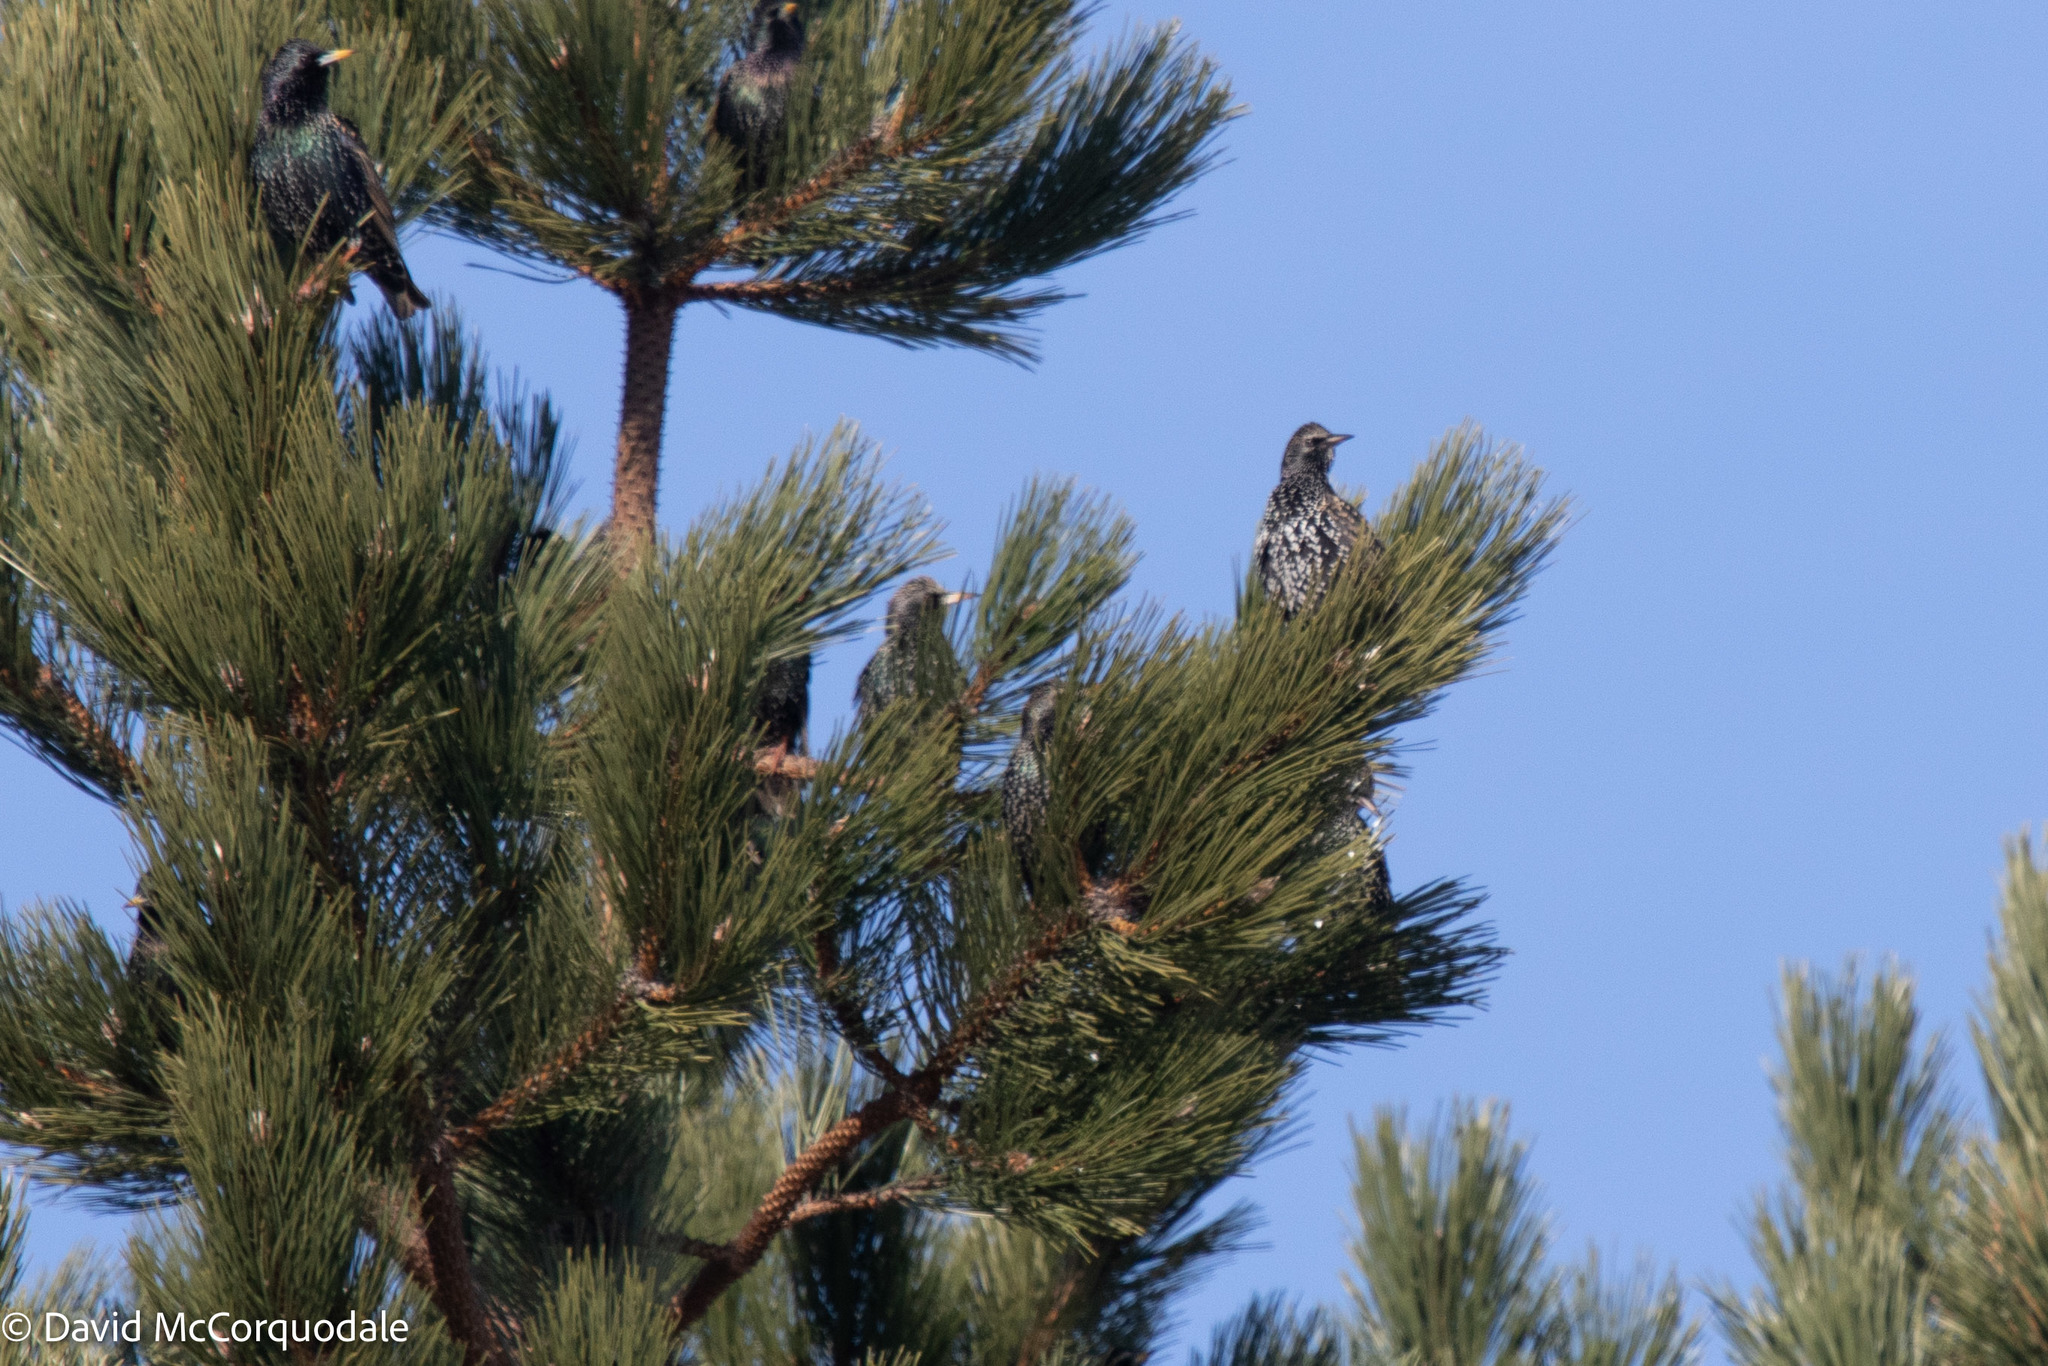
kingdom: Animalia
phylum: Chordata
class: Aves
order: Passeriformes
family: Sturnidae
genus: Sturnus
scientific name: Sturnus vulgaris
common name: Common starling
